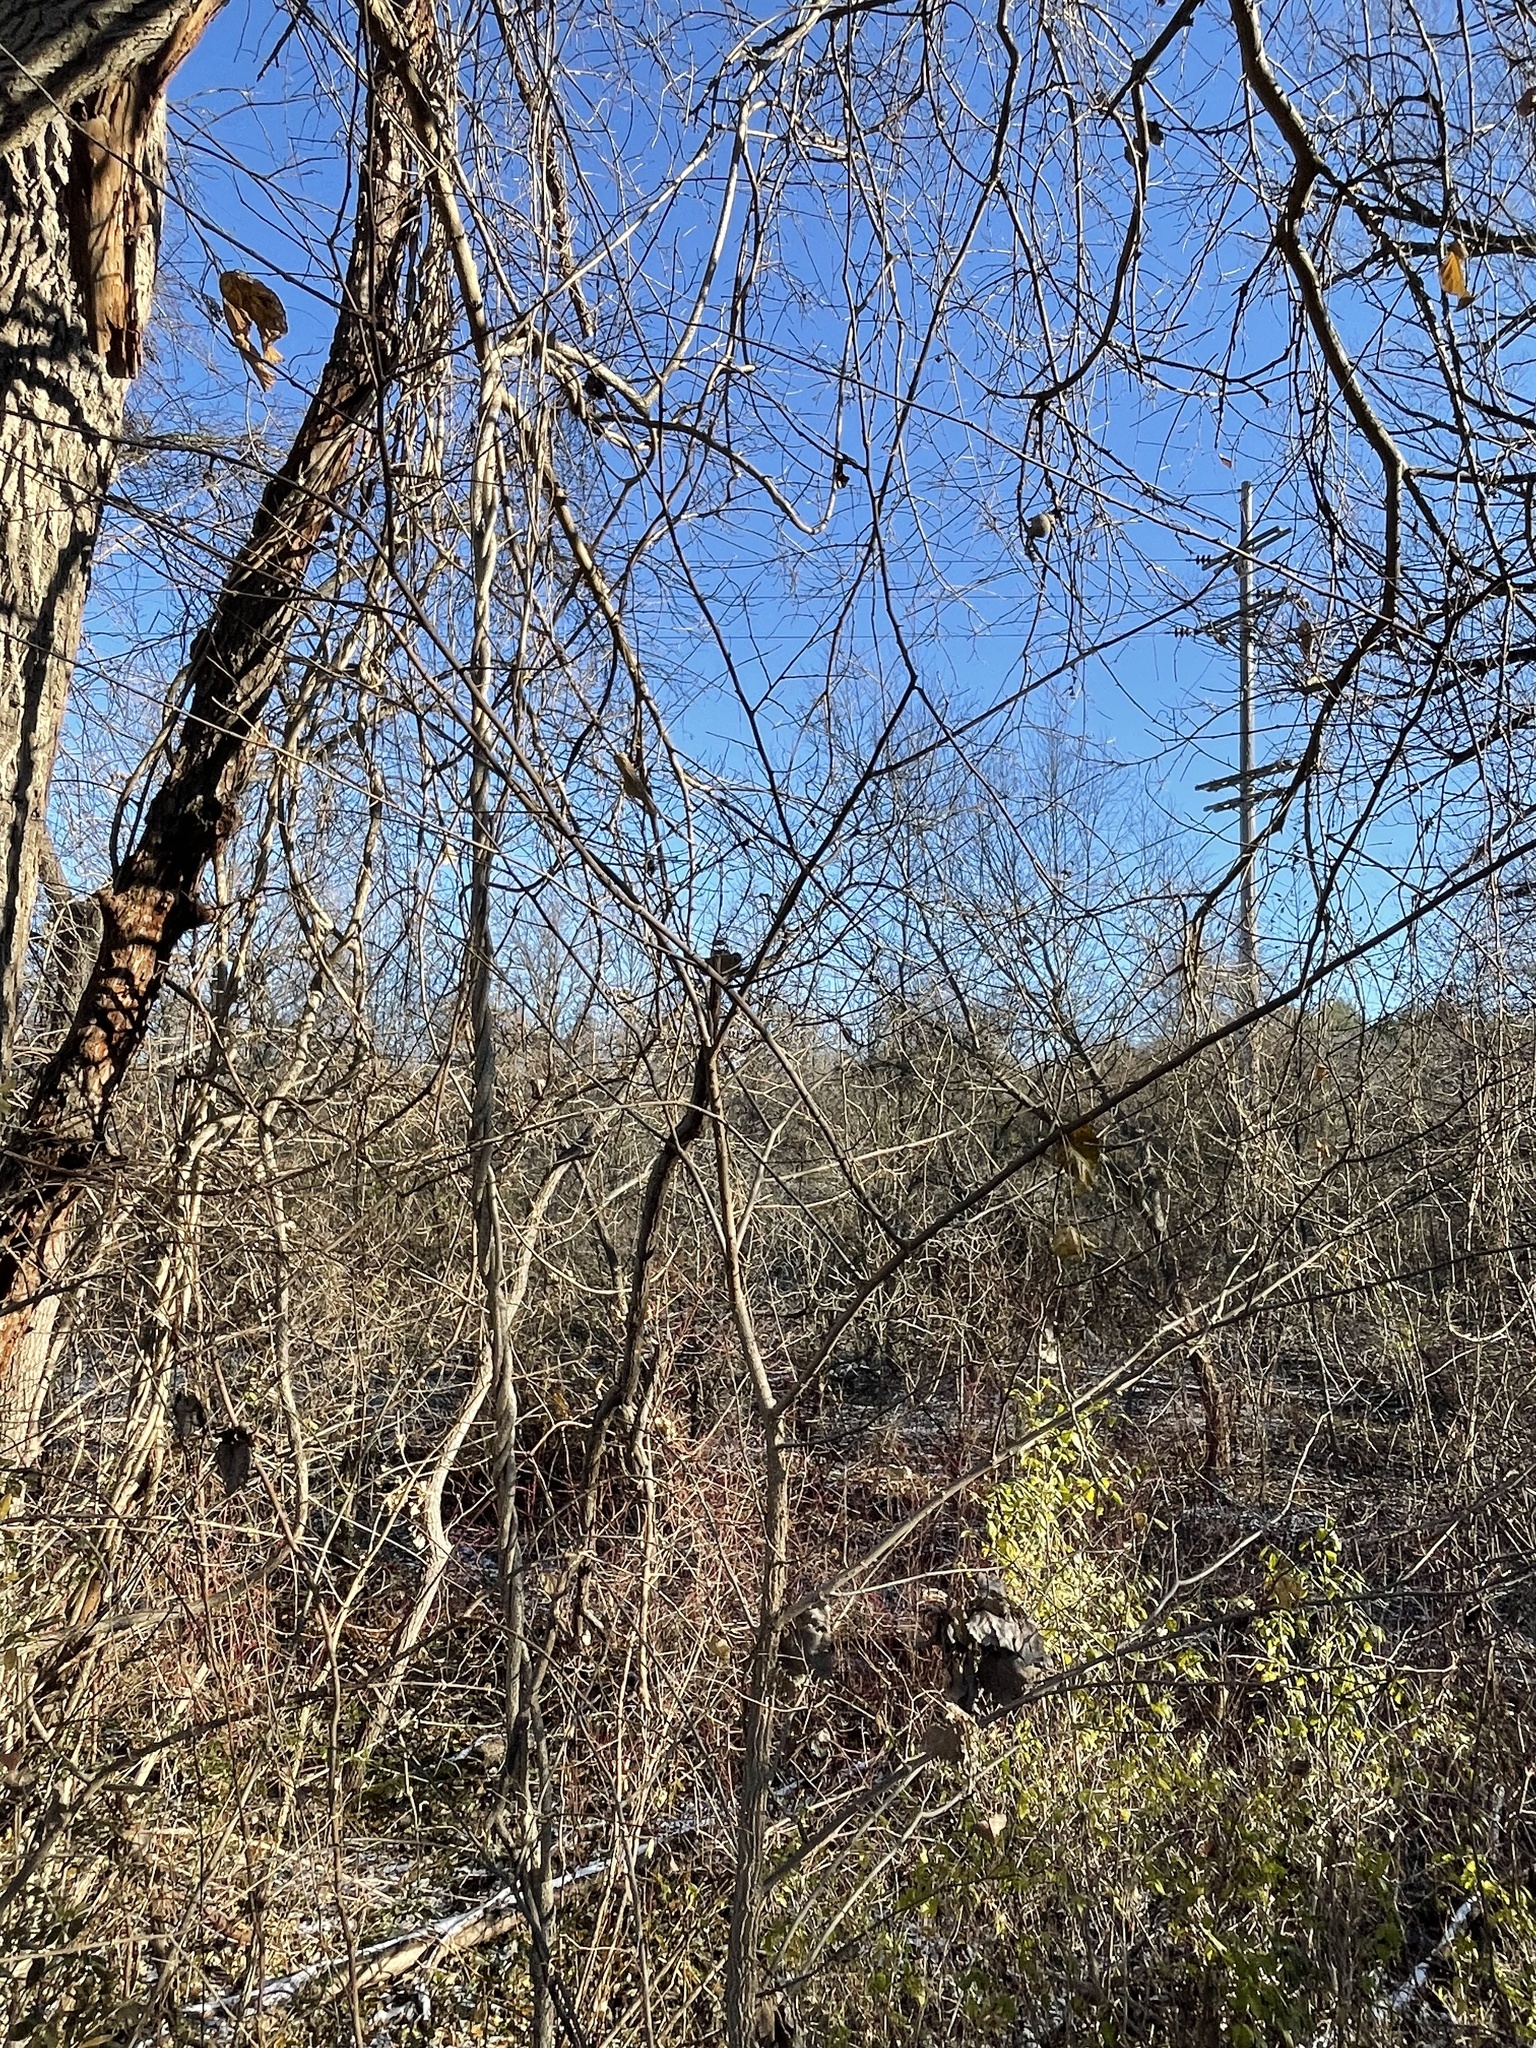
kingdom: Animalia
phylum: Arthropoda
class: Insecta
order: Hemiptera
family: Aphalaridae
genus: Pachypsylla
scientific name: Pachypsylla venusta
